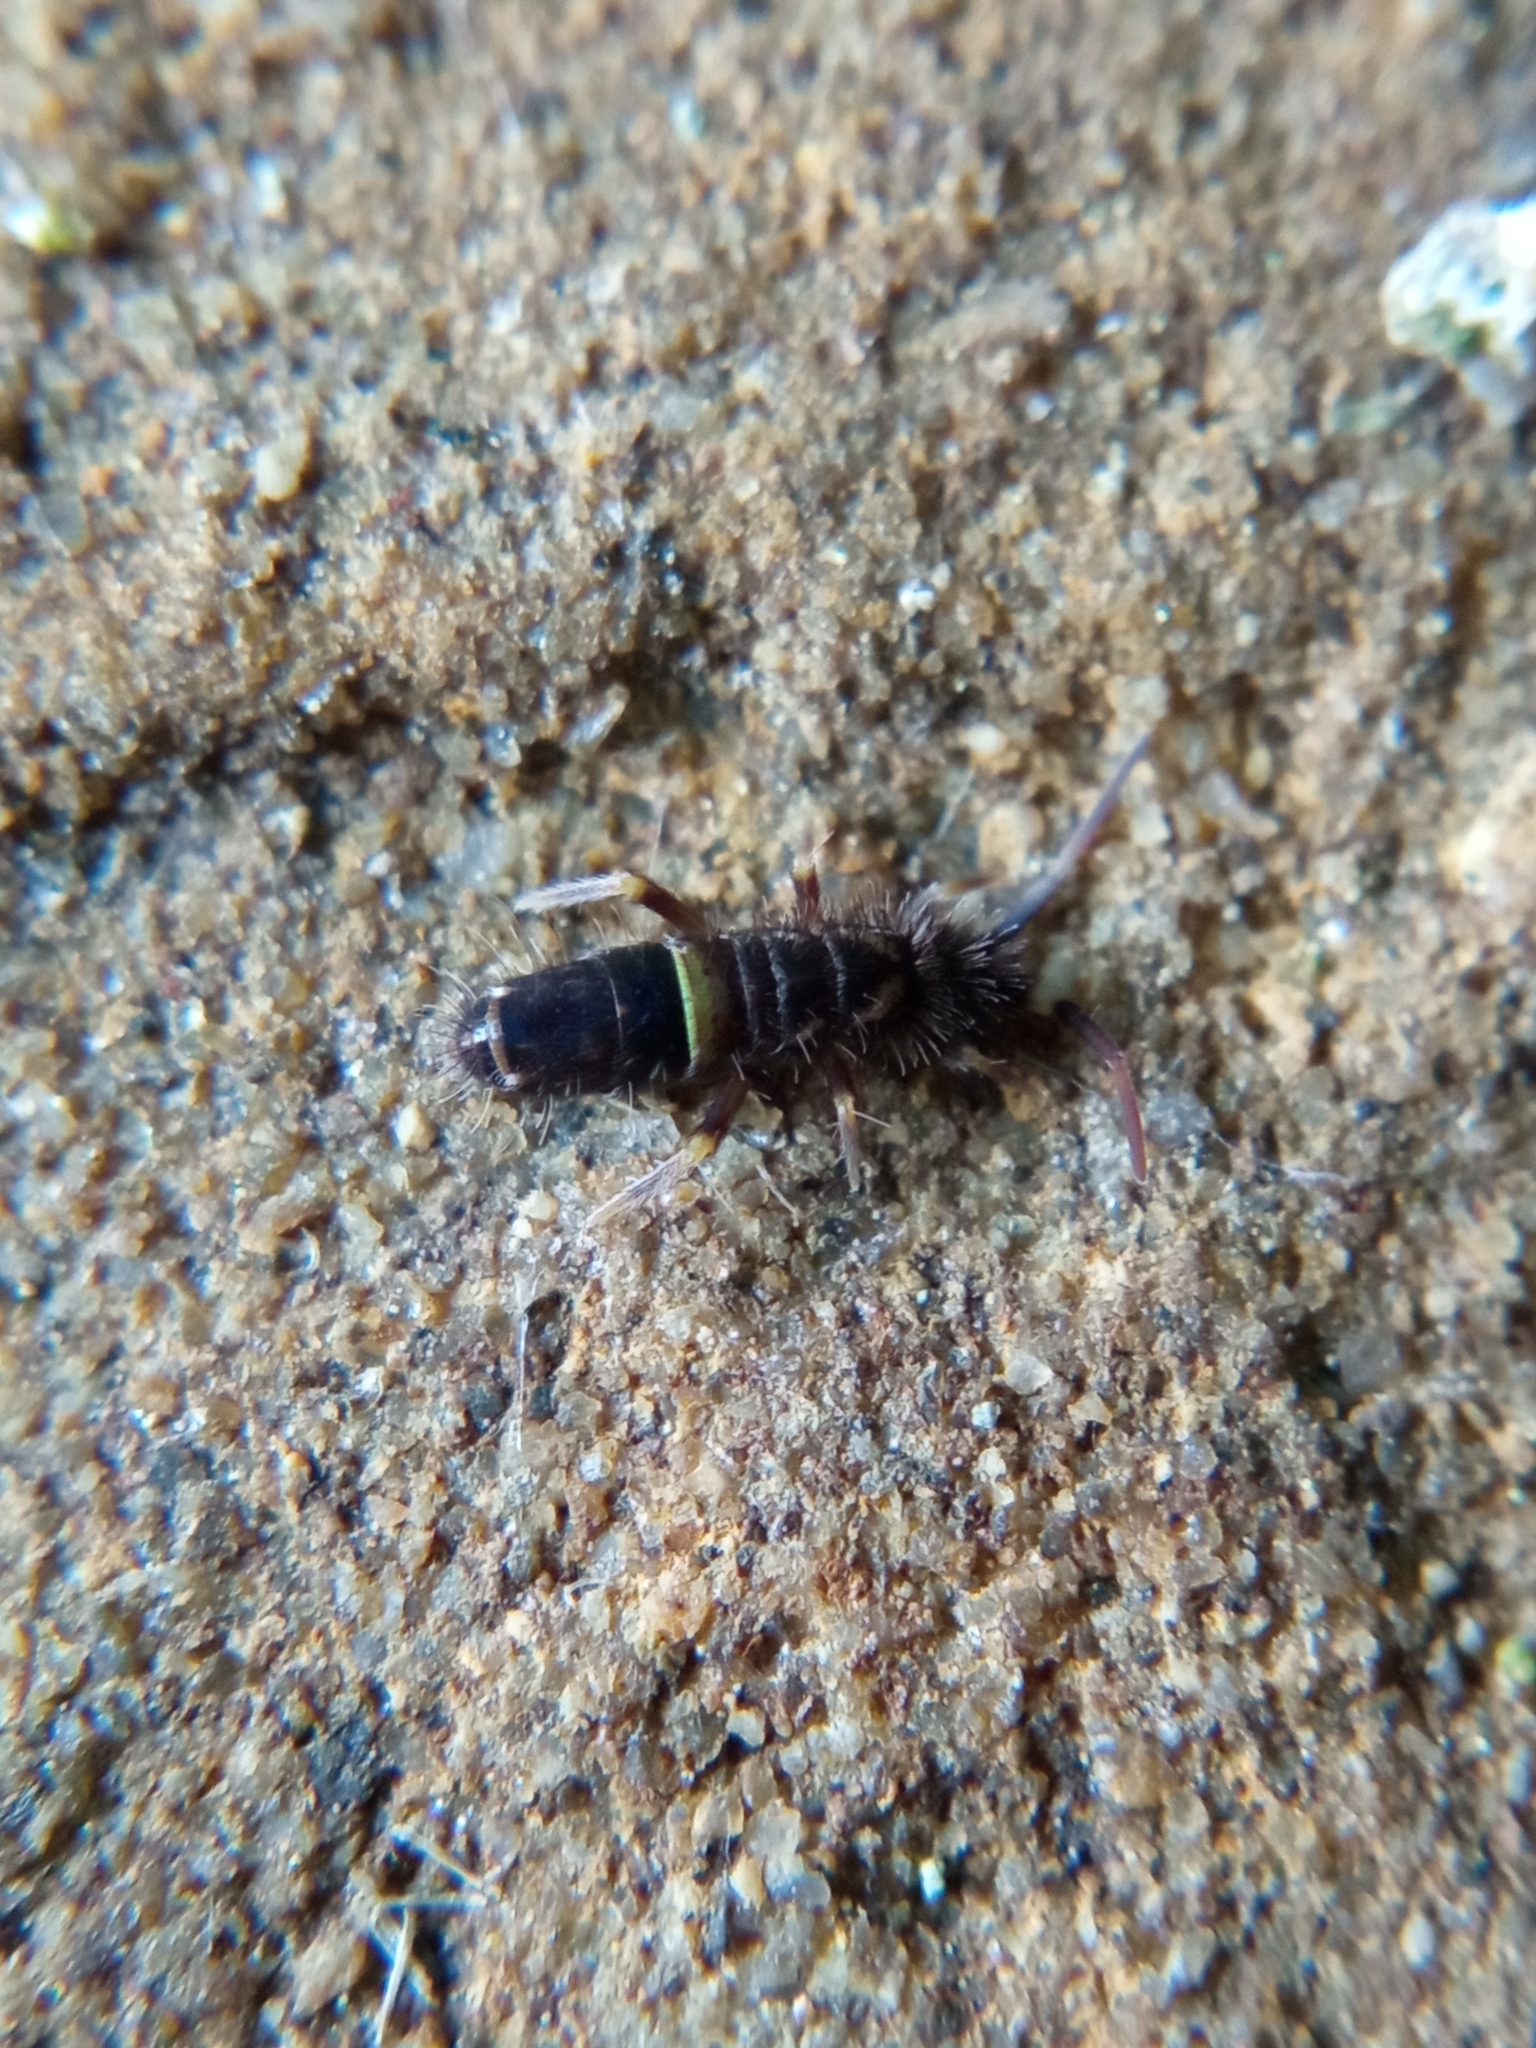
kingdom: Animalia
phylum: Arthropoda
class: Collembola
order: Entomobryomorpha
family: Orchesellidae
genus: Orchesella
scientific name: Orchesella cincta
